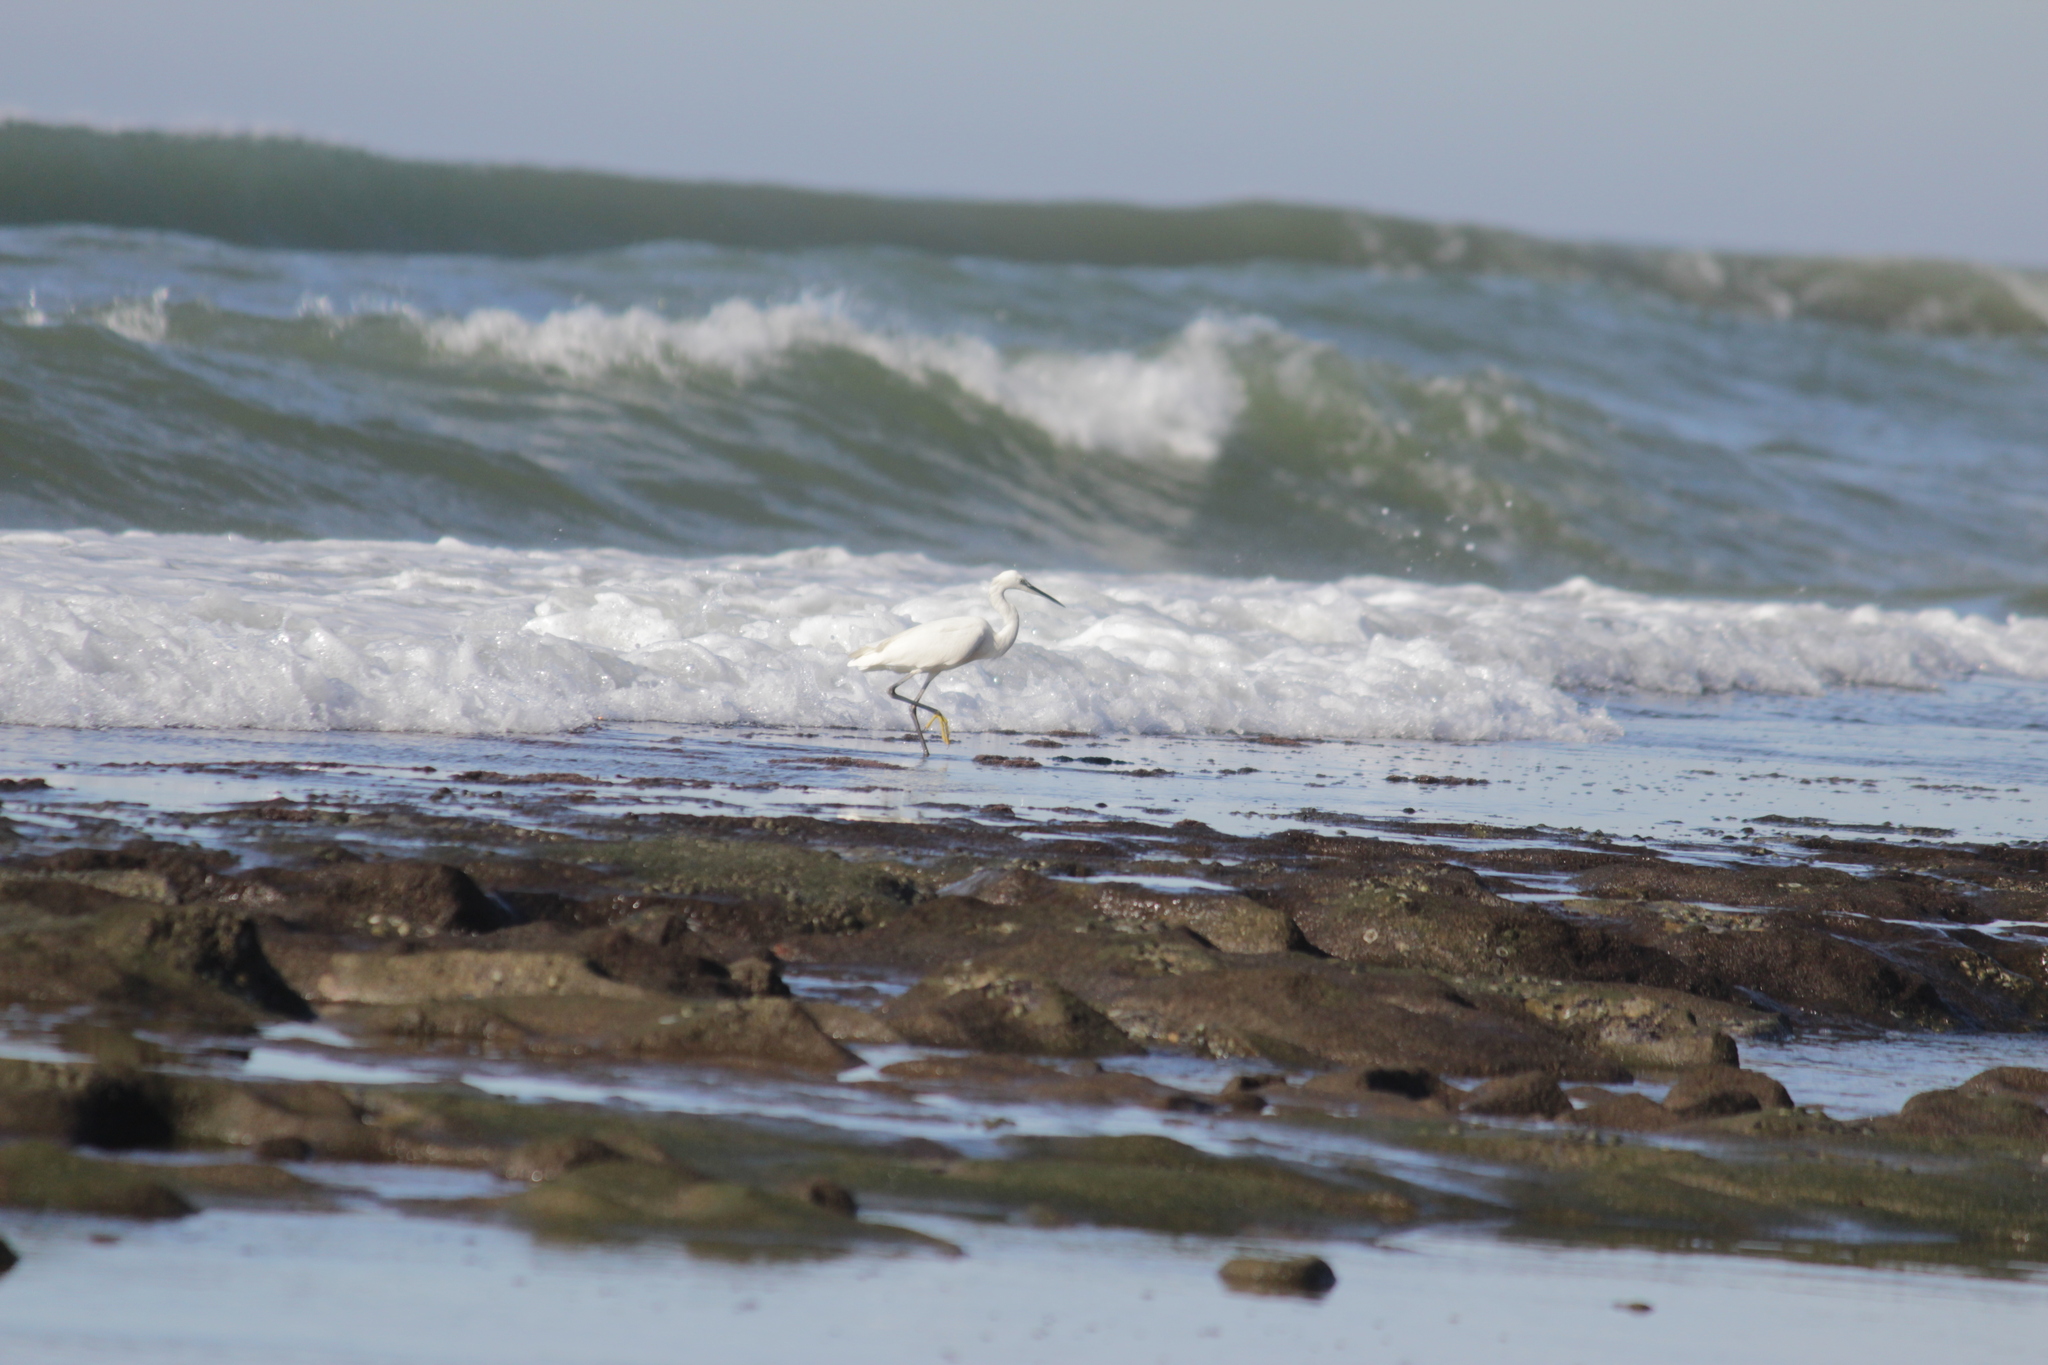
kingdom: Animalia
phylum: Chordata
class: Aves
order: Pelecaniformes
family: Ardeidae
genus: Egretta
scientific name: Egretta garzetta
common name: Little egret
